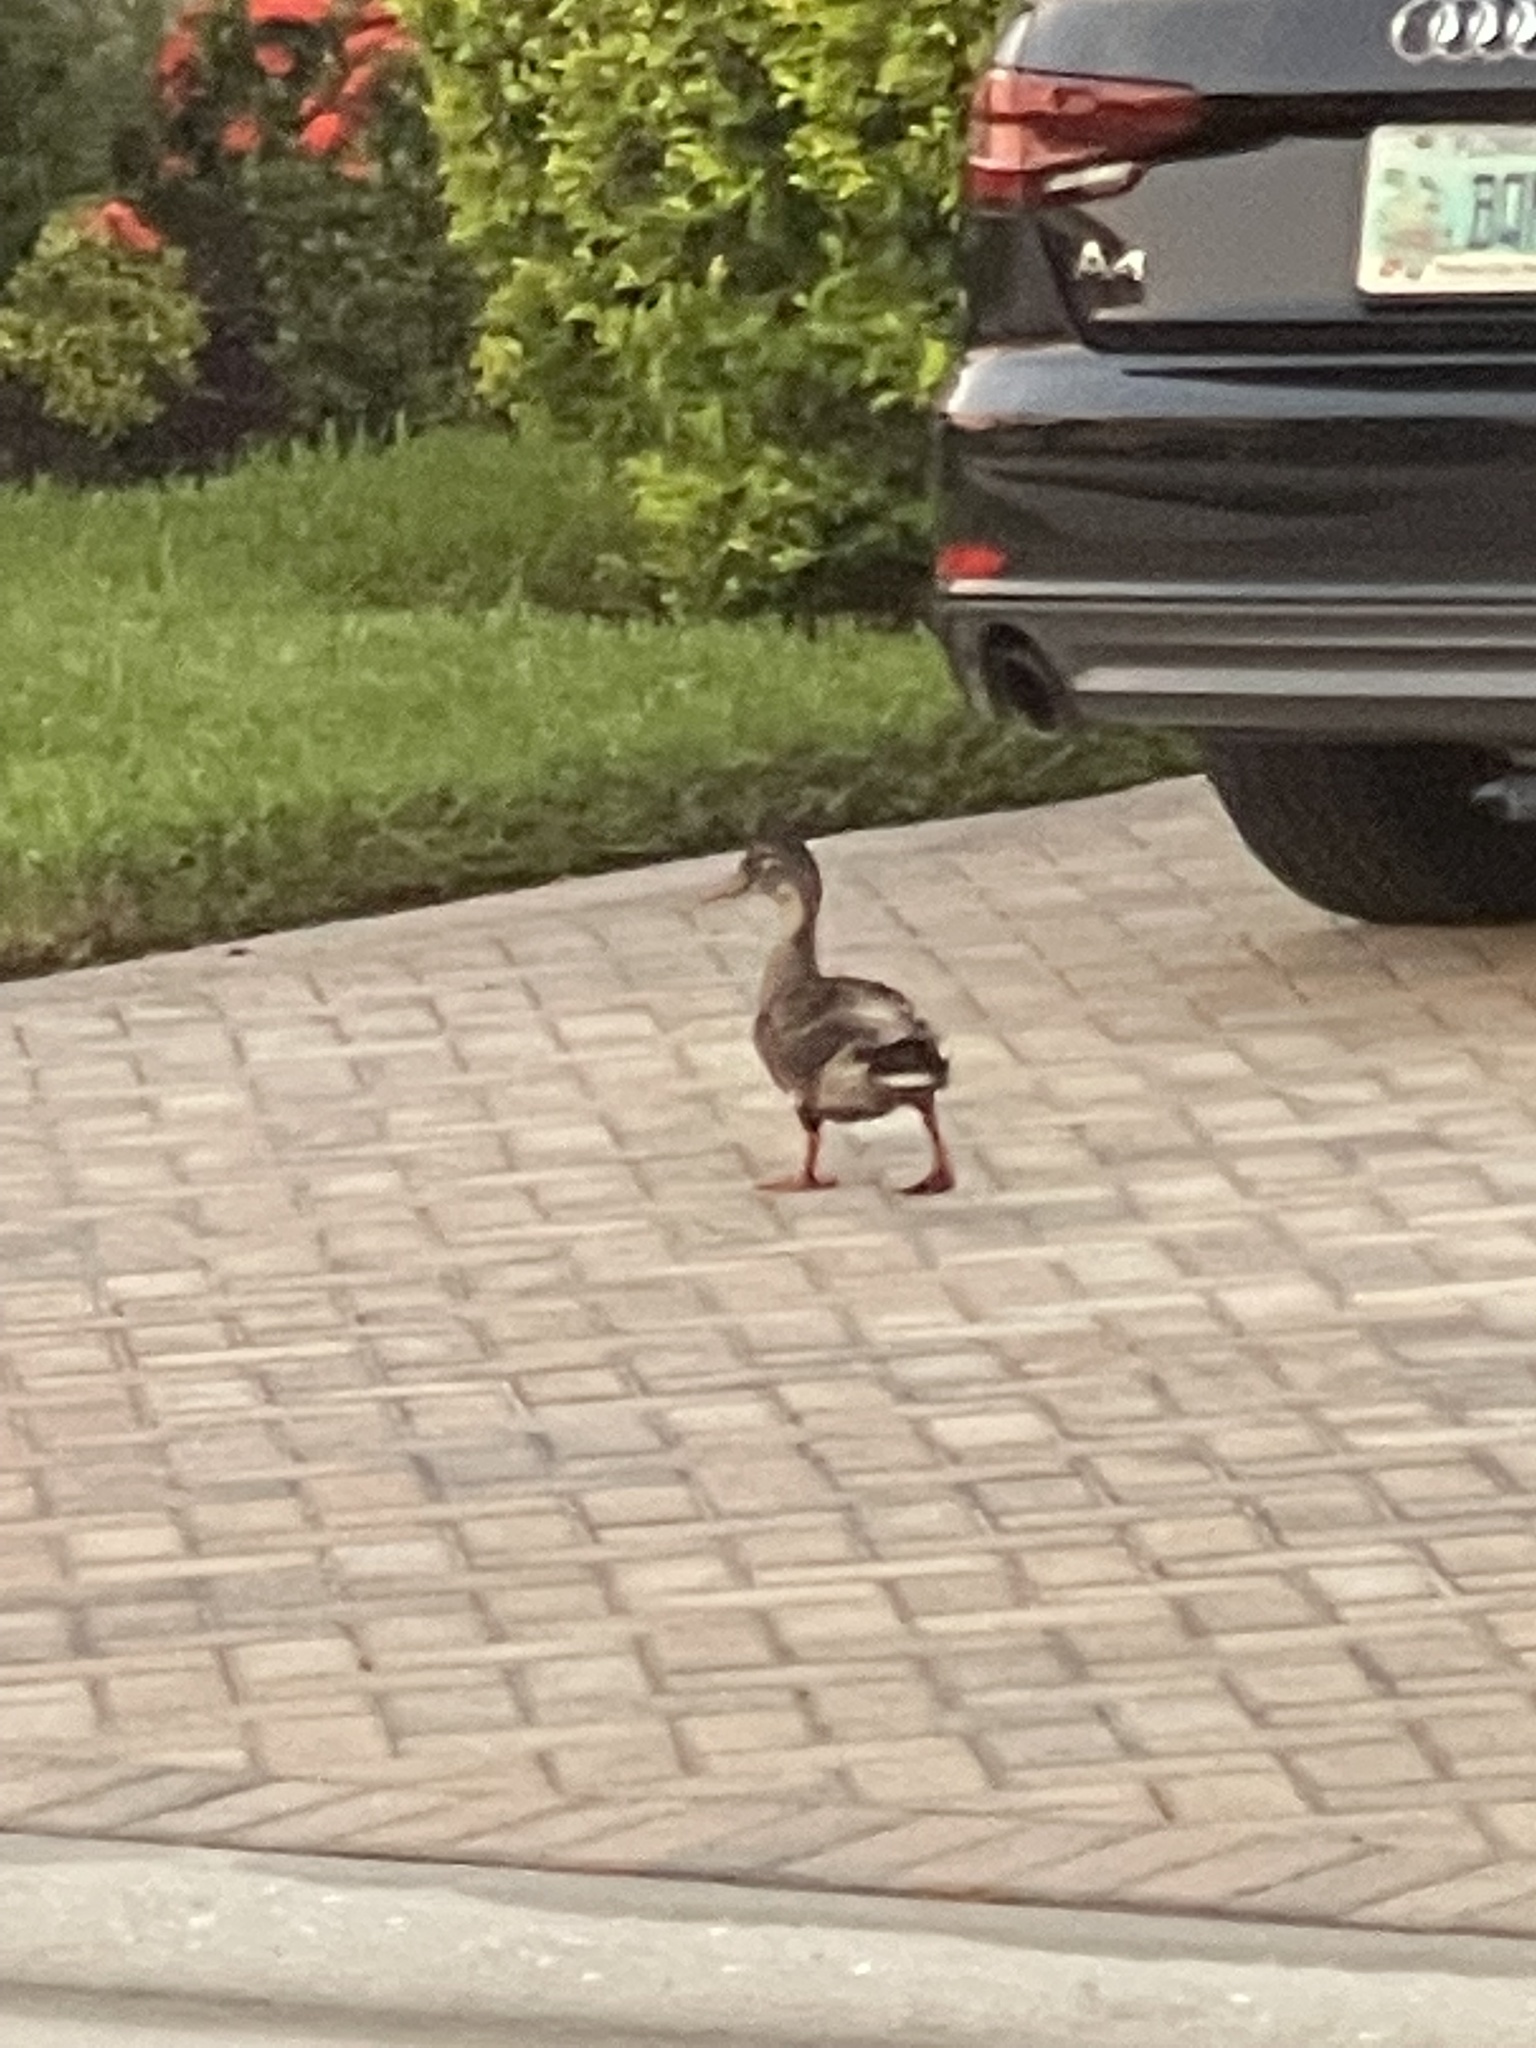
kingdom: Animalia
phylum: Chordata
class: Aves
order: Anseriformes
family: Anatidae
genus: Anas
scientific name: Anas platyrhynchos
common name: Mallard
